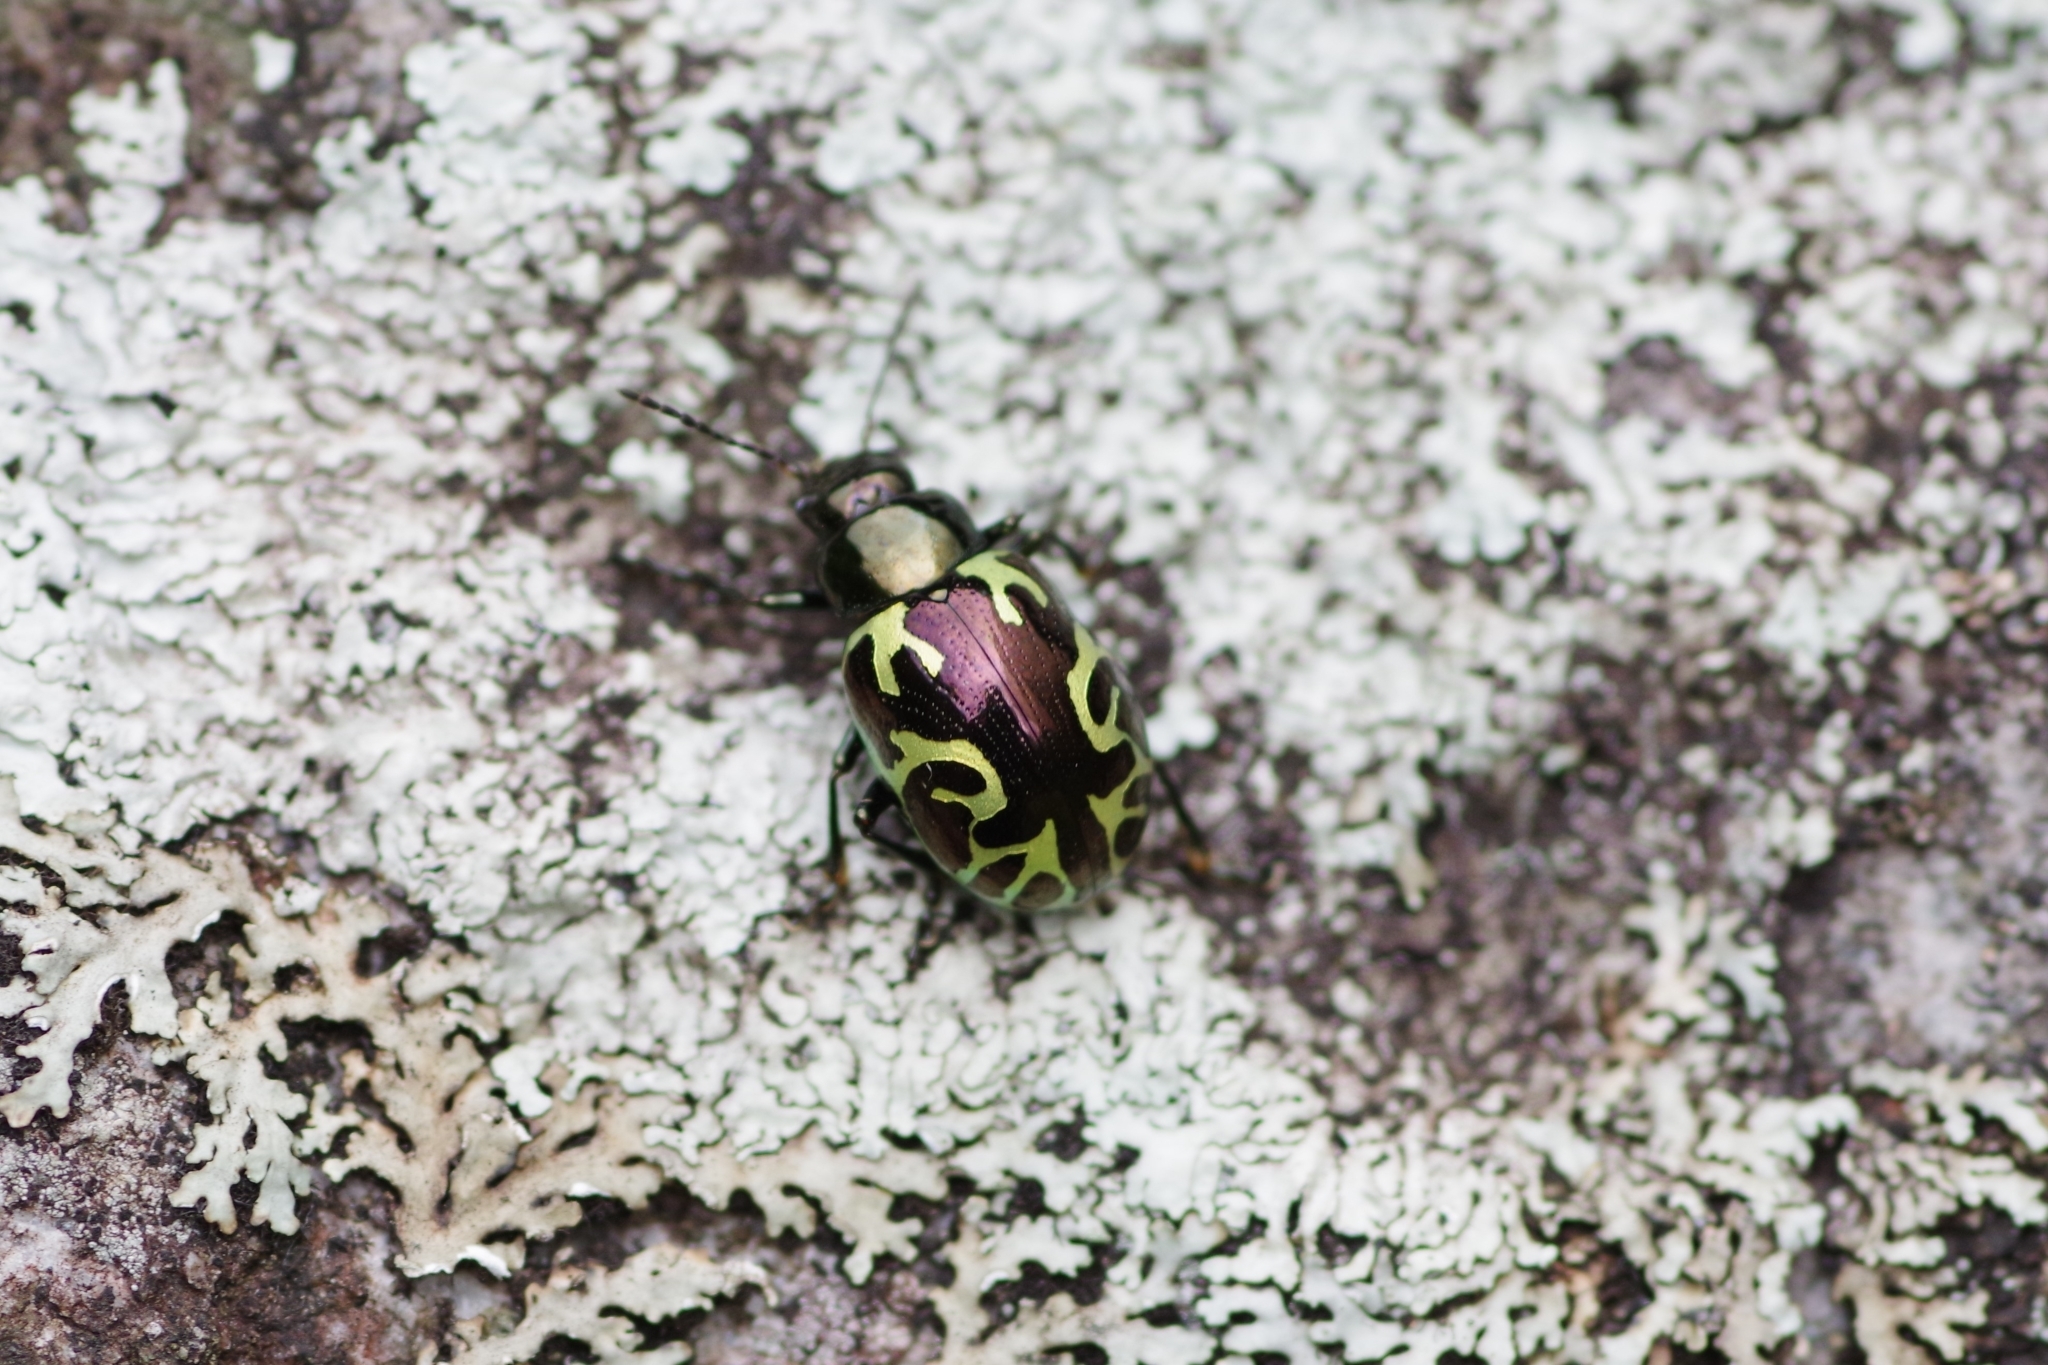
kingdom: Animalia
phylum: Arthropoda
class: Insecta
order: Coleoptera
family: Chrysomelidae
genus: Calligrapha
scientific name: Calligrapha
